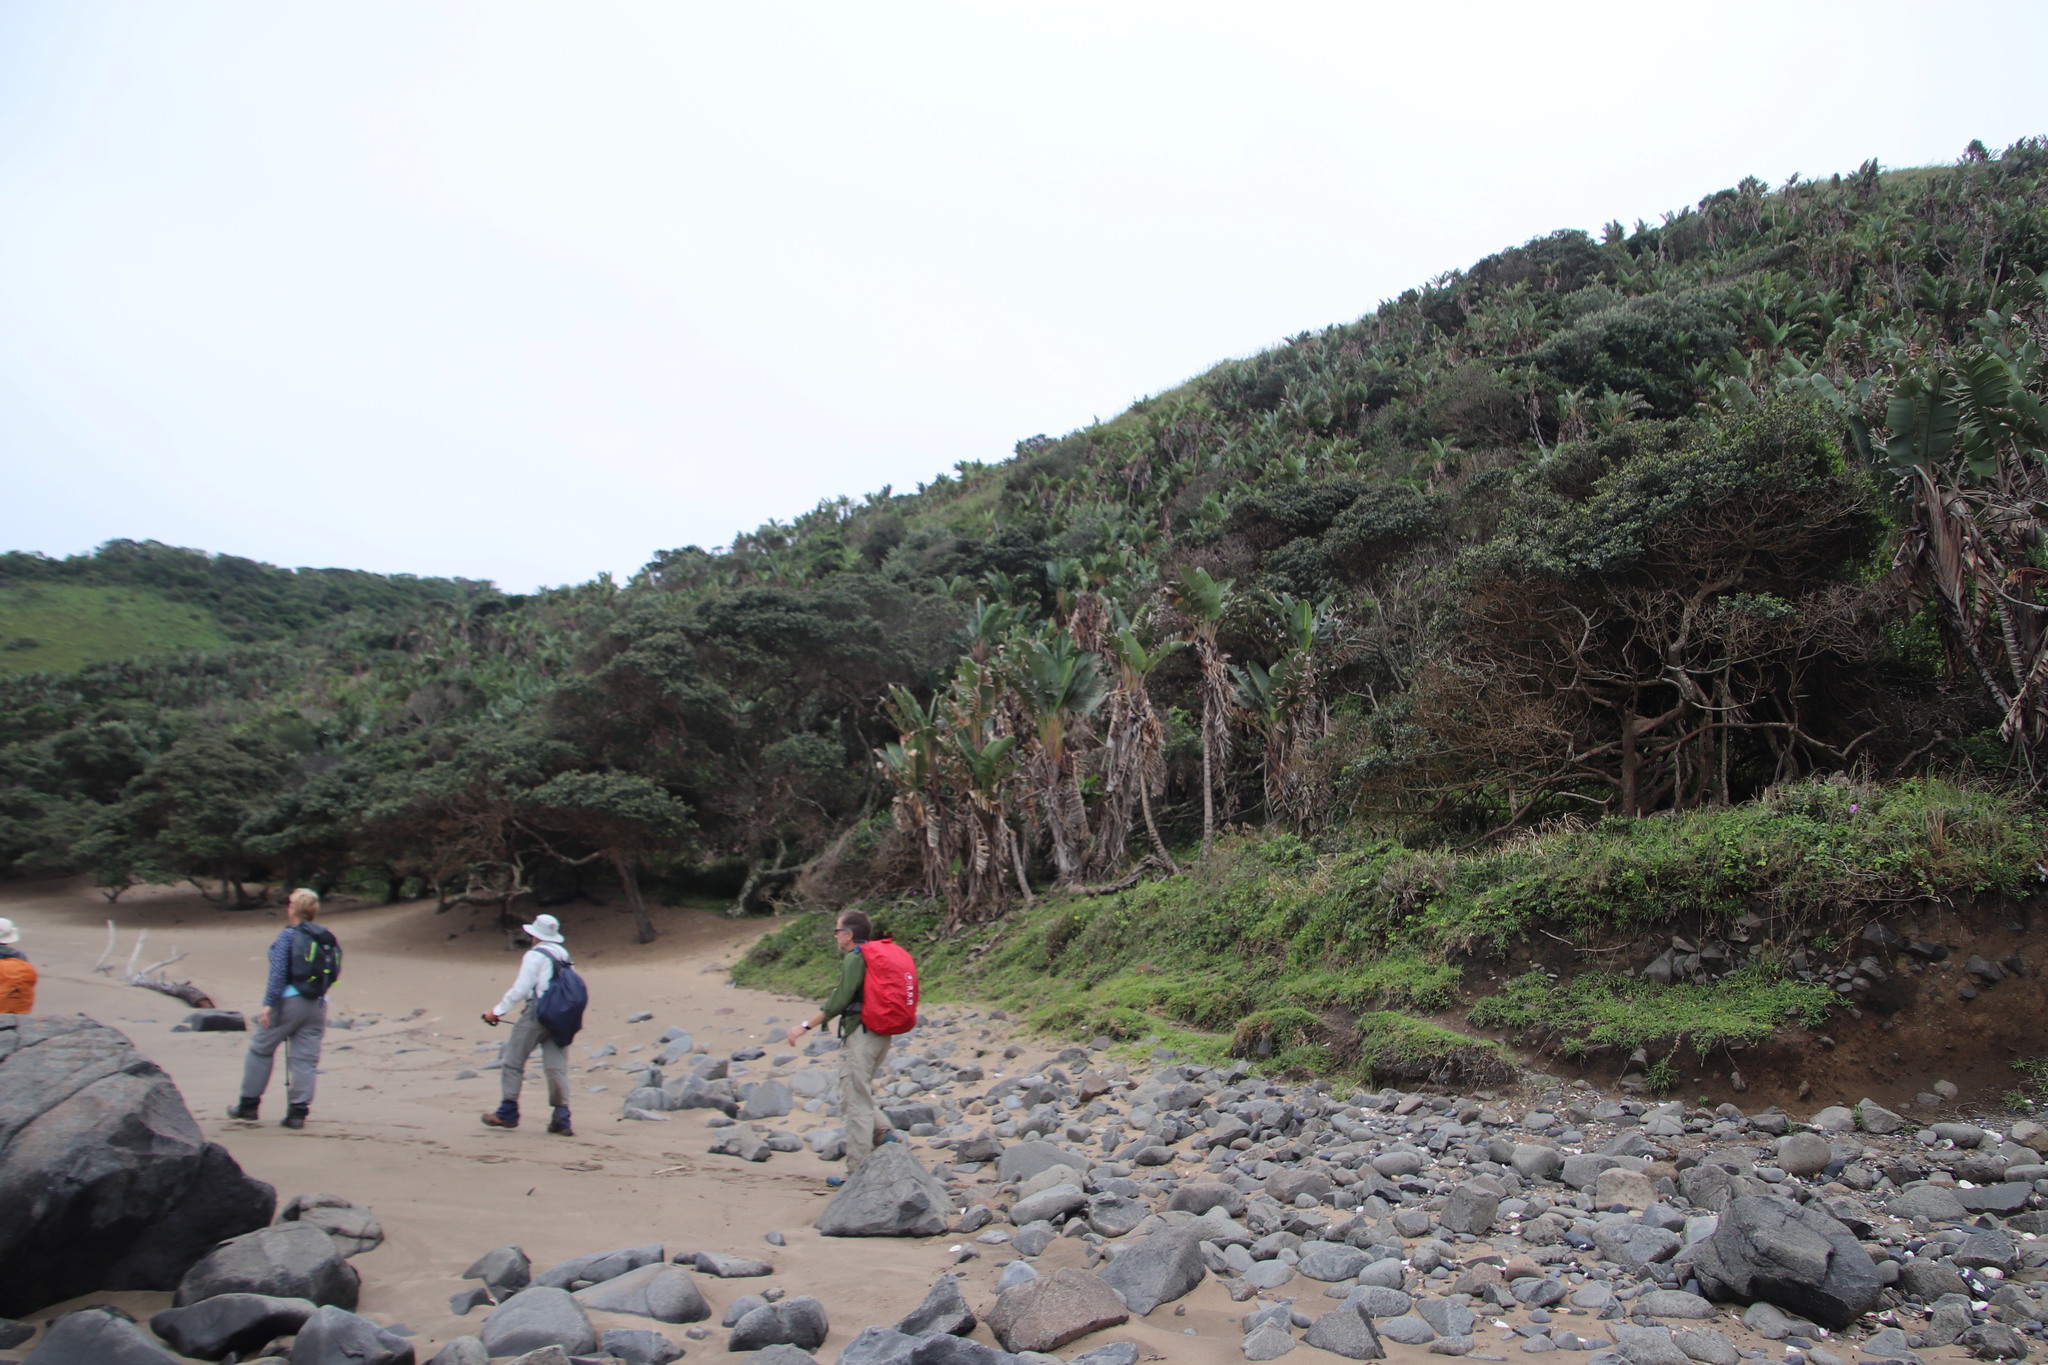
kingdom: Plantae
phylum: Tracheophyta
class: Liliopsida
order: Zingiberales
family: Strelitziaceae
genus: Strelitzia
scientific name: Strelitzia nicolai
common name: Bird-of-paradise tree
